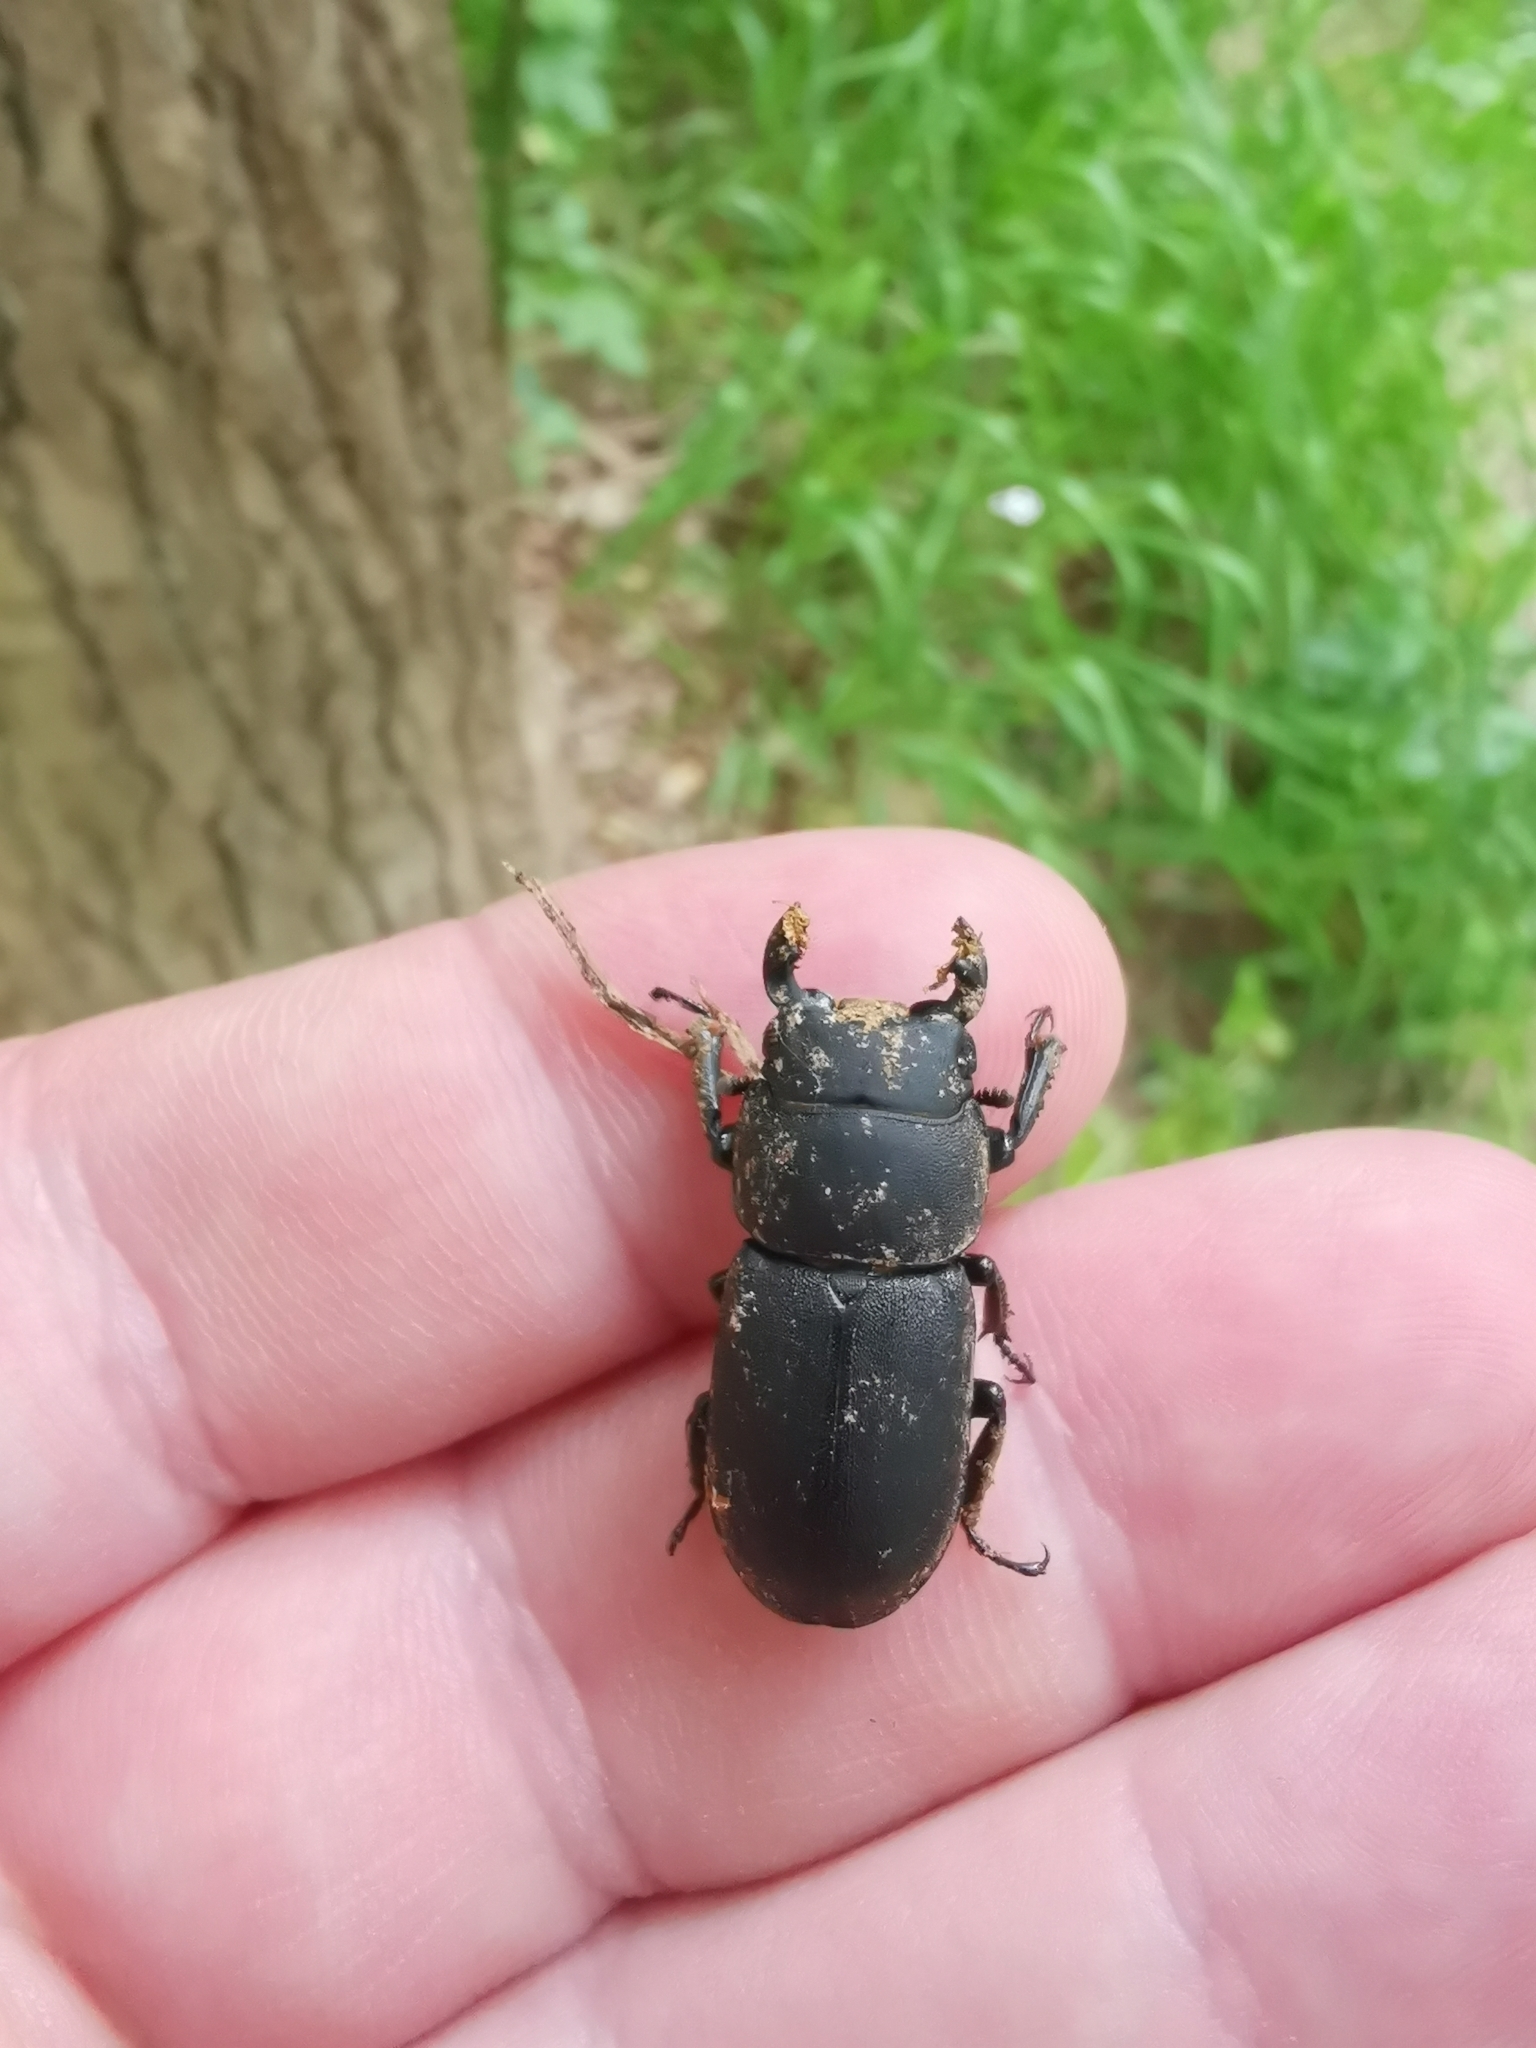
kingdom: Animalia
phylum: Arthropoda
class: Insecta
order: Coleoptera
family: Lucanidae
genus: Dorcus
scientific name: Dorcus parallelipipedus
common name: Lesser stag beetle
